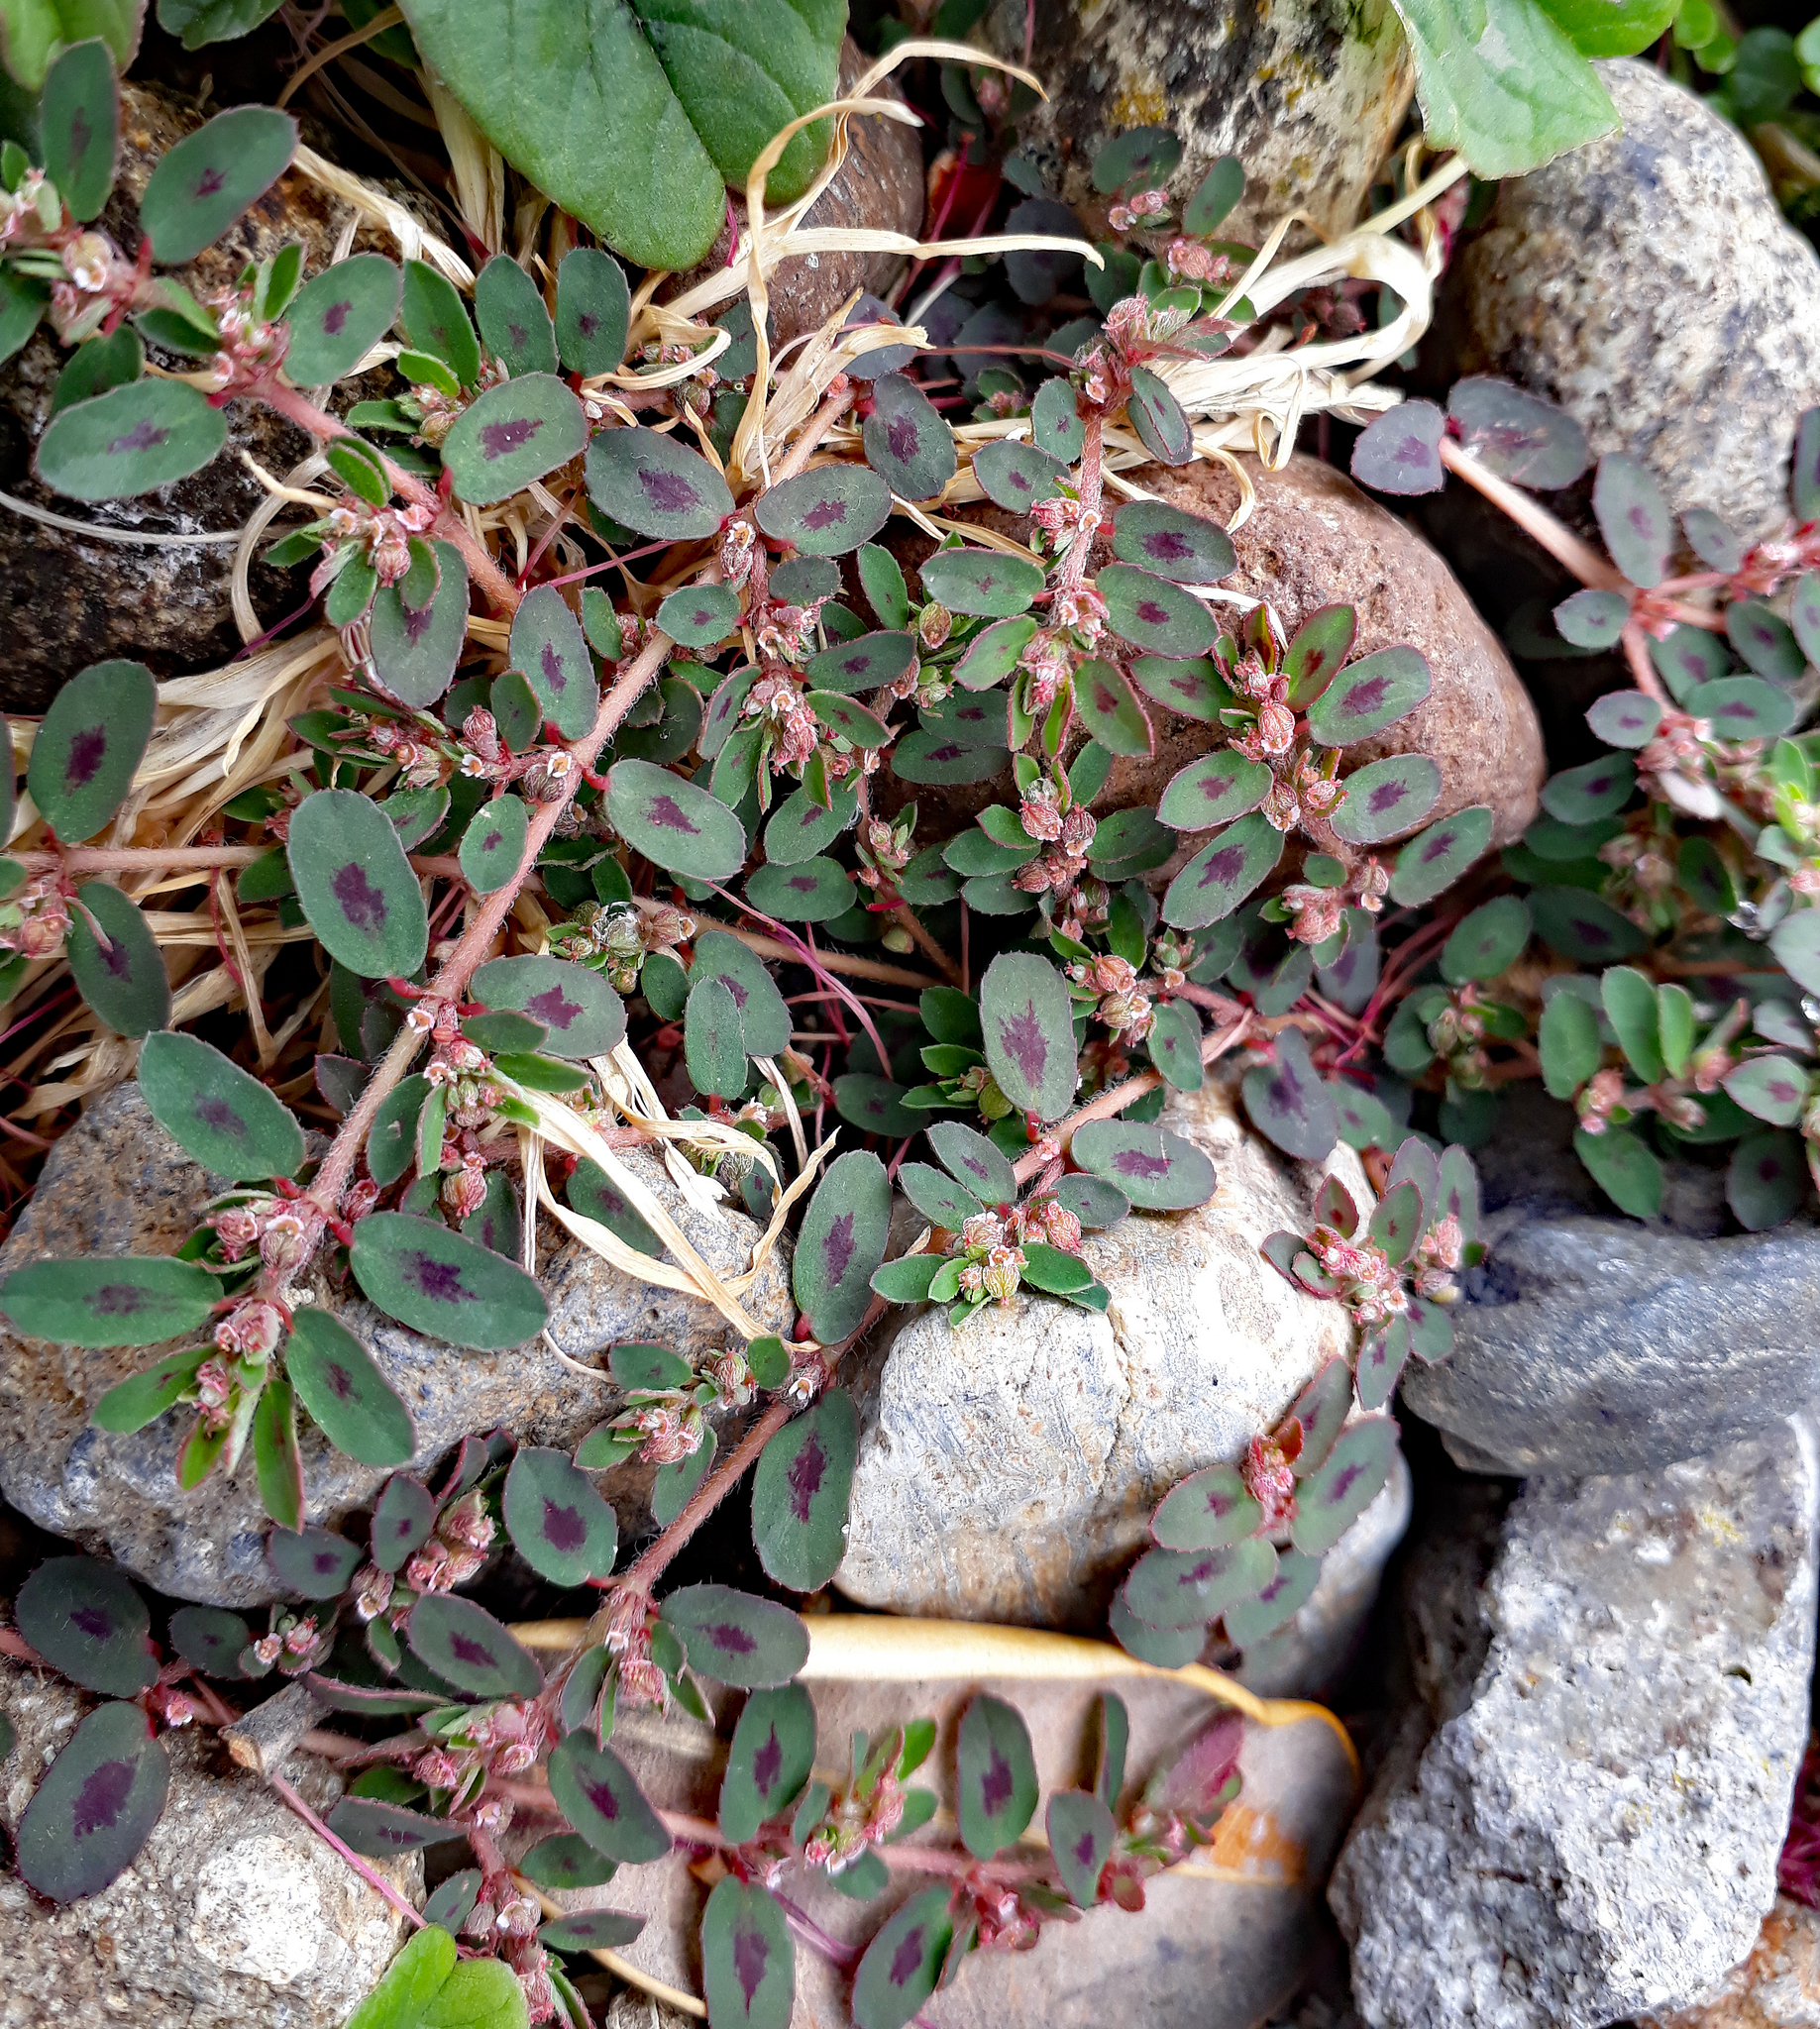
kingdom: Plantae
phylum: Tracheophyta
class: Magnoliopsida
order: Malpighiales
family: Euphorbiaceae
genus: Euphorbia
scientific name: Euphorbia maculata
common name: Spotted spurge
